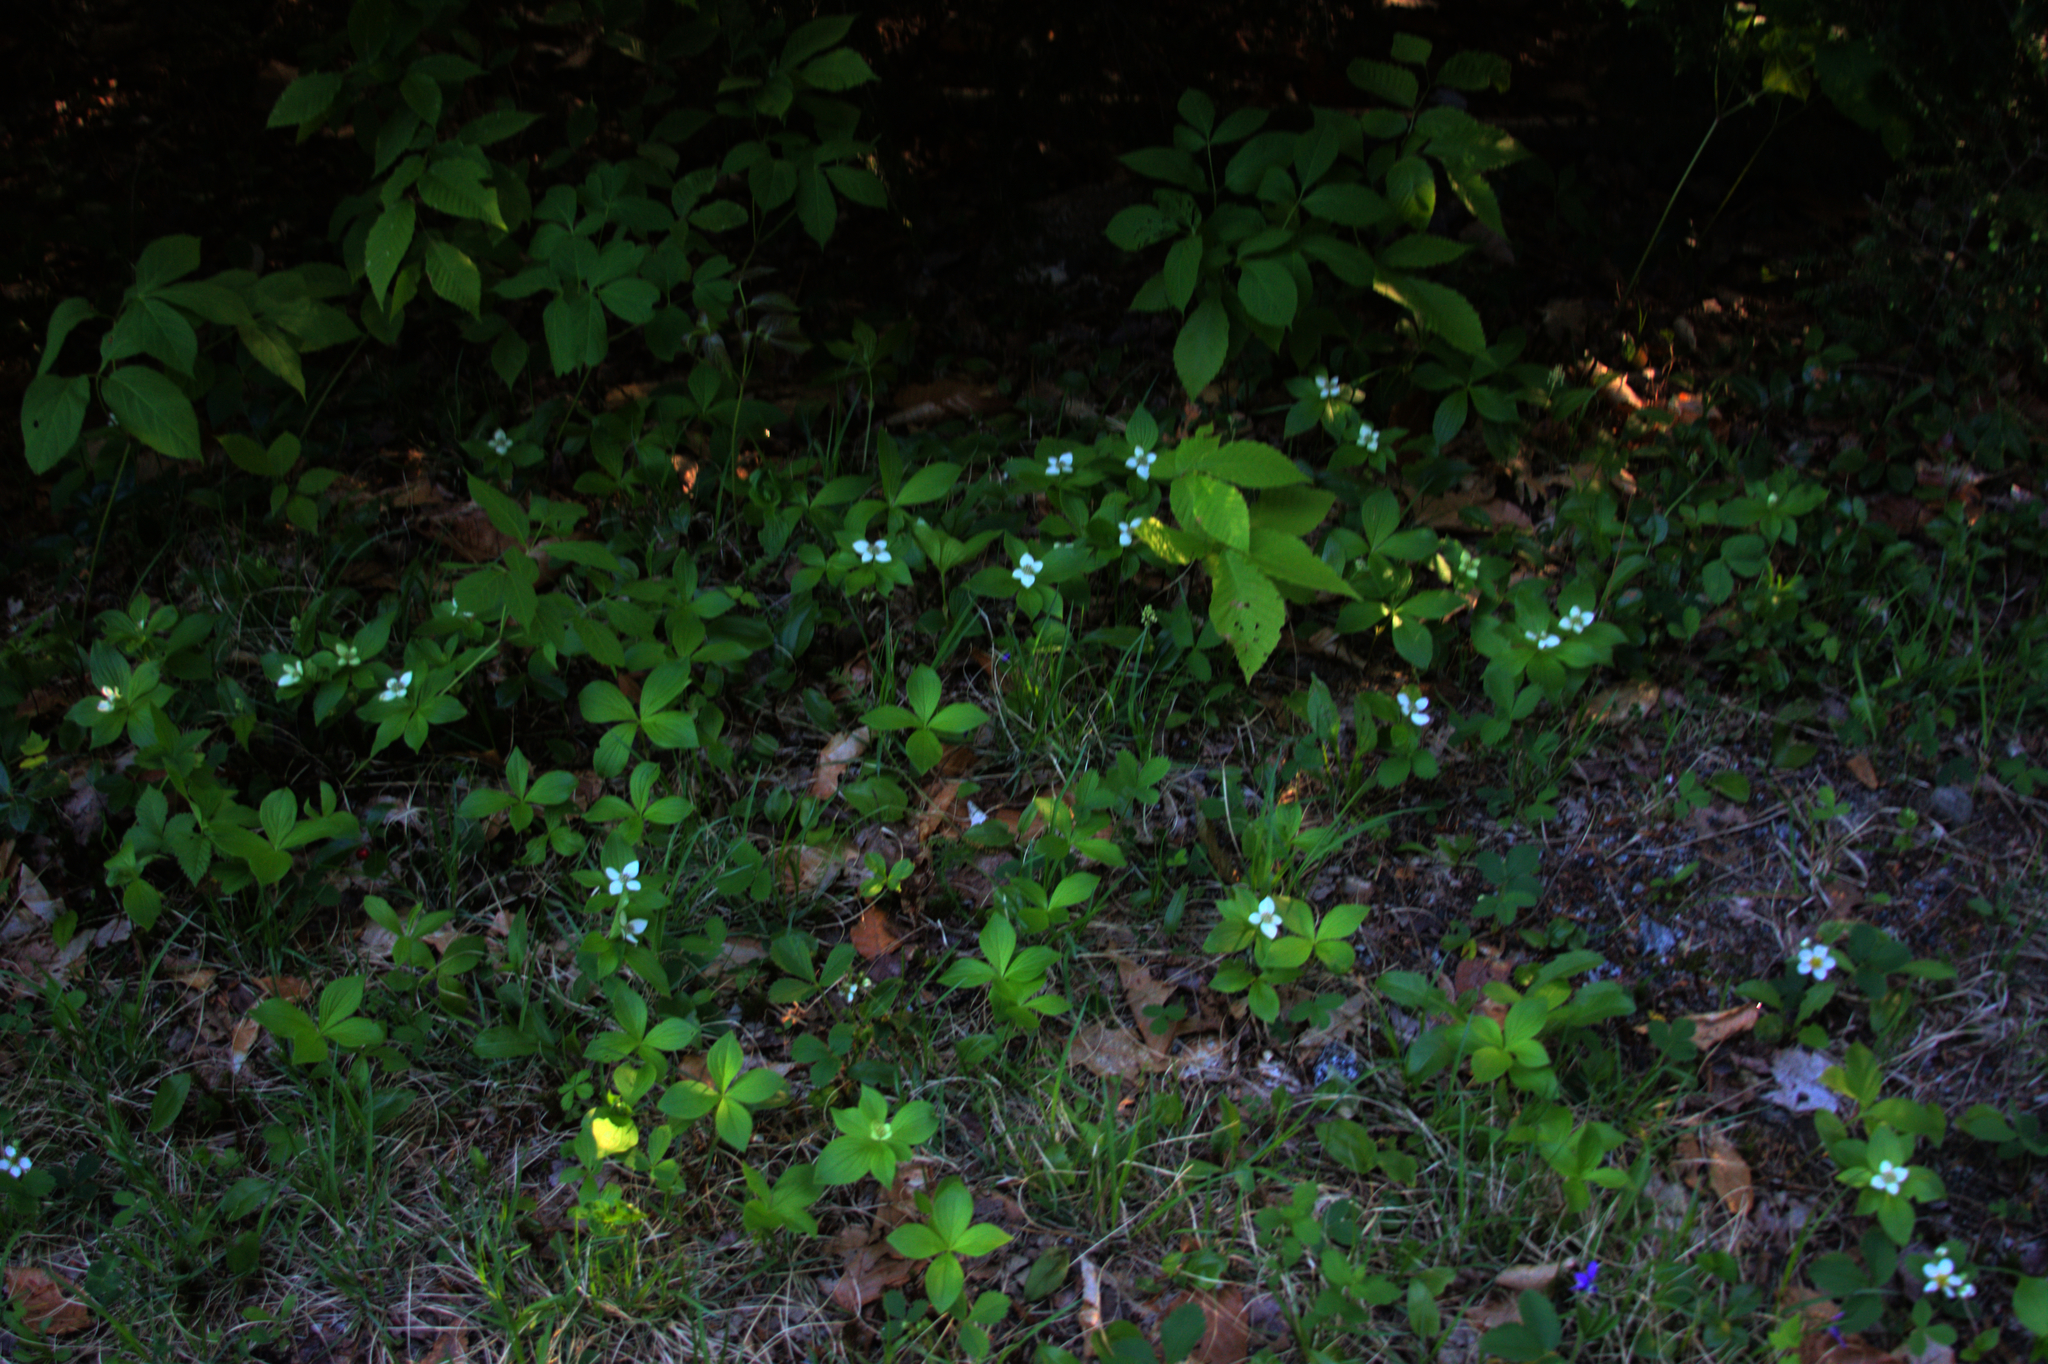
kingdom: Plantae
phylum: Tracheophyta
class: Magnoliopsida
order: Cornales
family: Cornaceae
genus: Cornus
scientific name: Cornus canadensis
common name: Creeping dogwood
